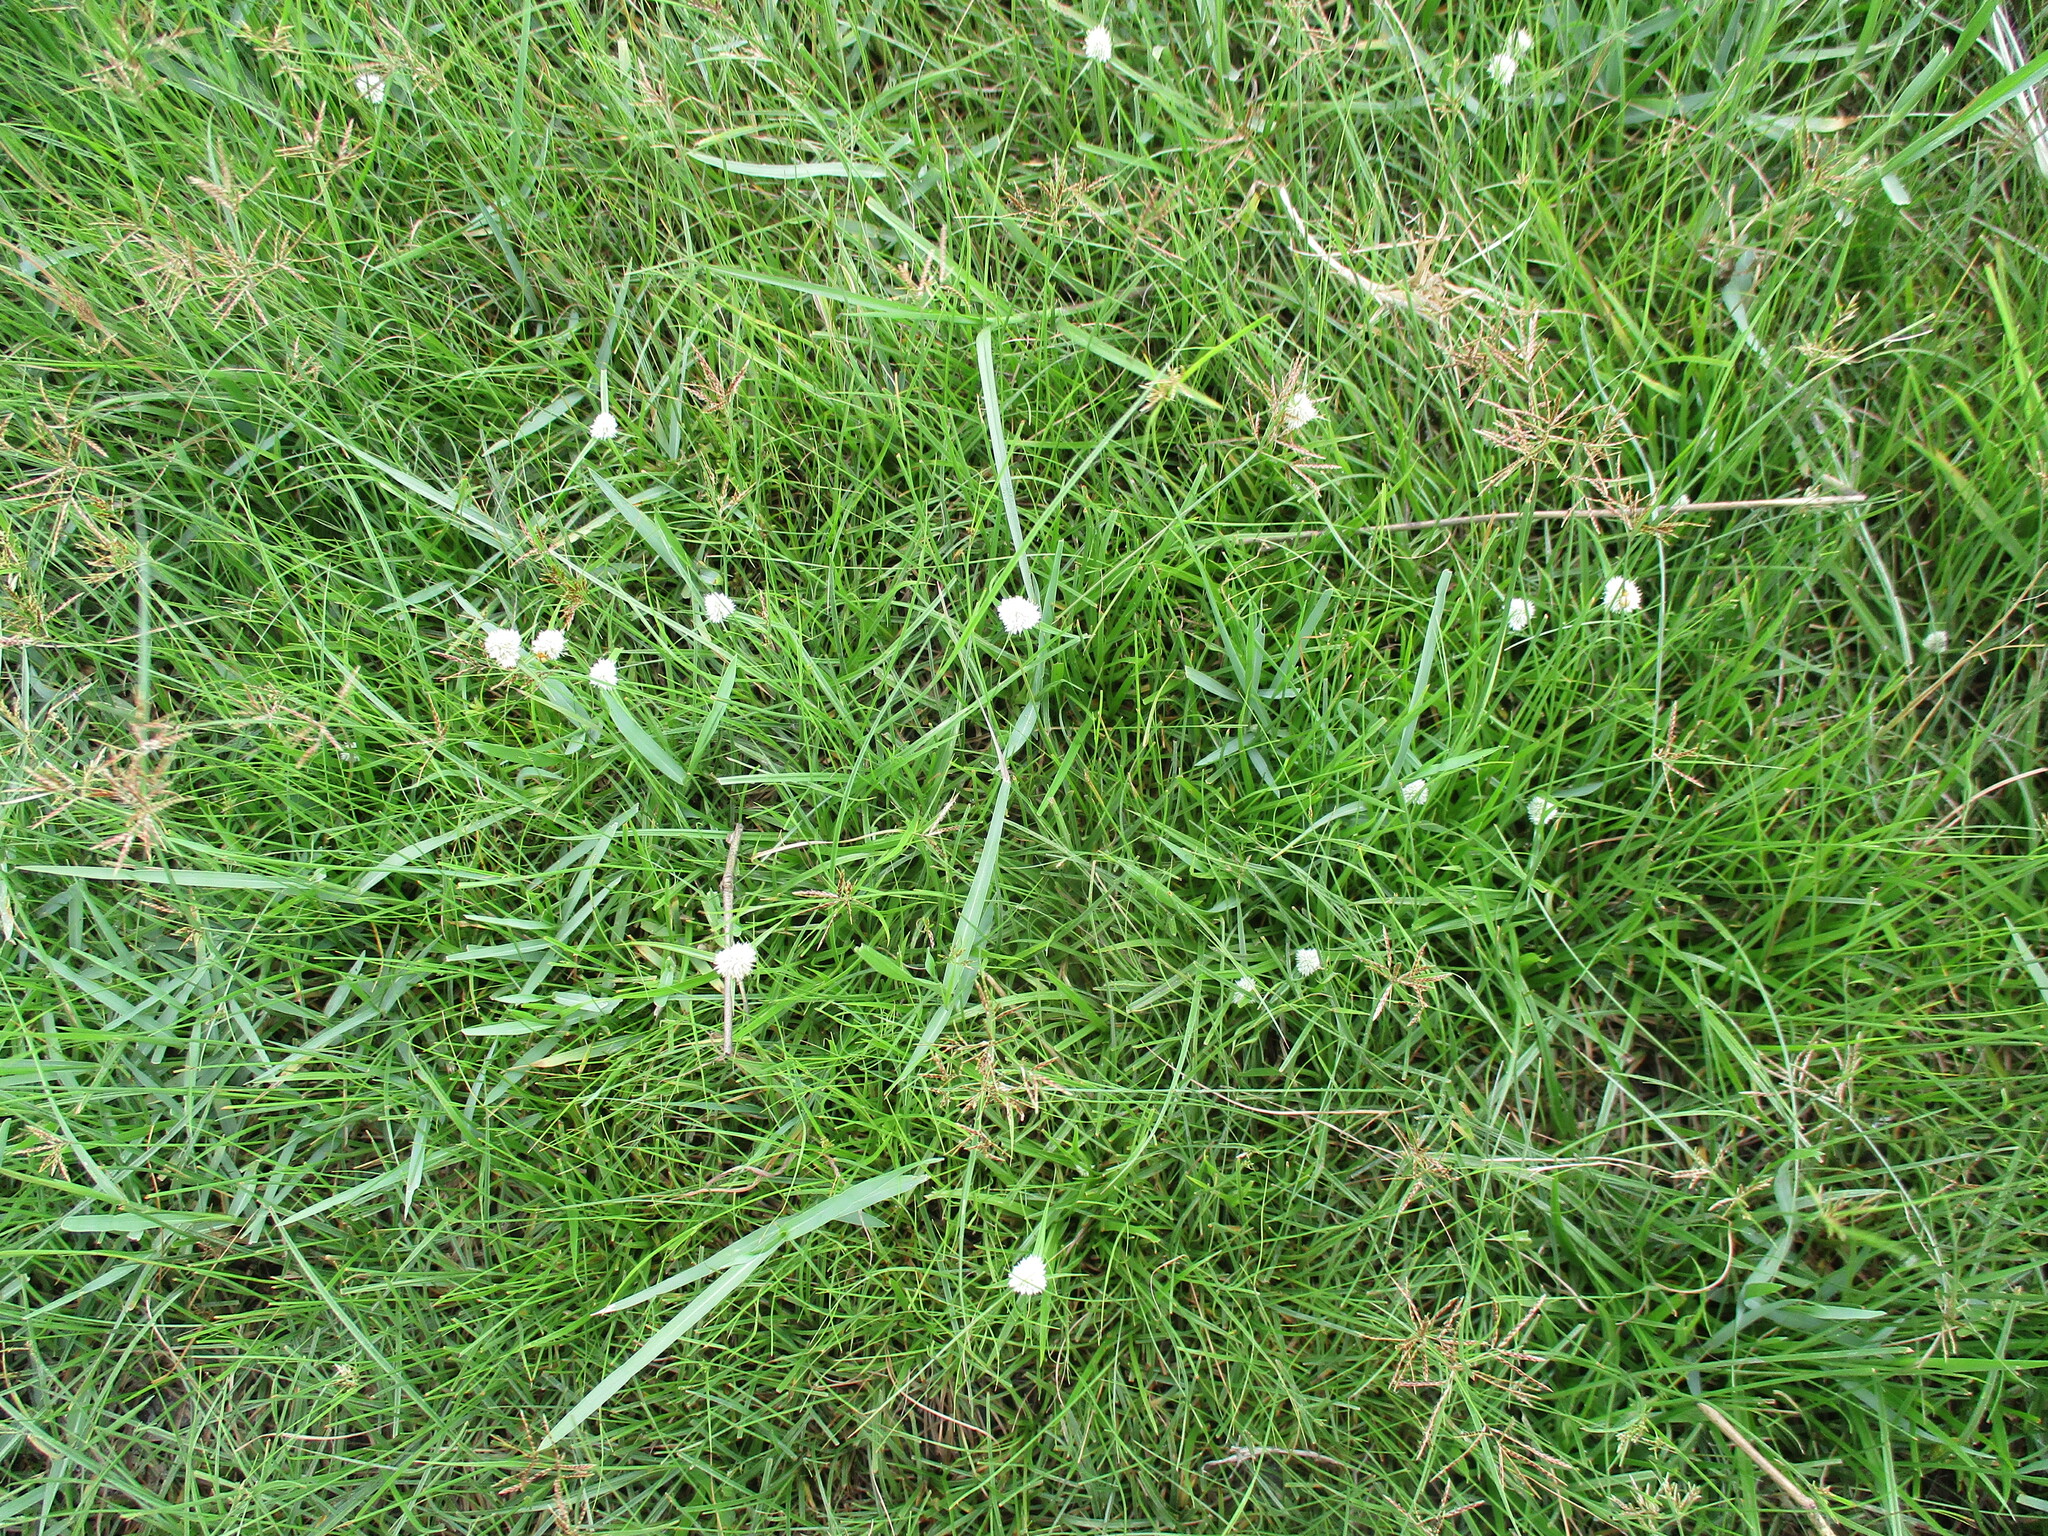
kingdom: Plantae
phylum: Tracheophyta
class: Liliopsida
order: Poales
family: Cyperaceae
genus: Cyperus
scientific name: Cyperus alatus
